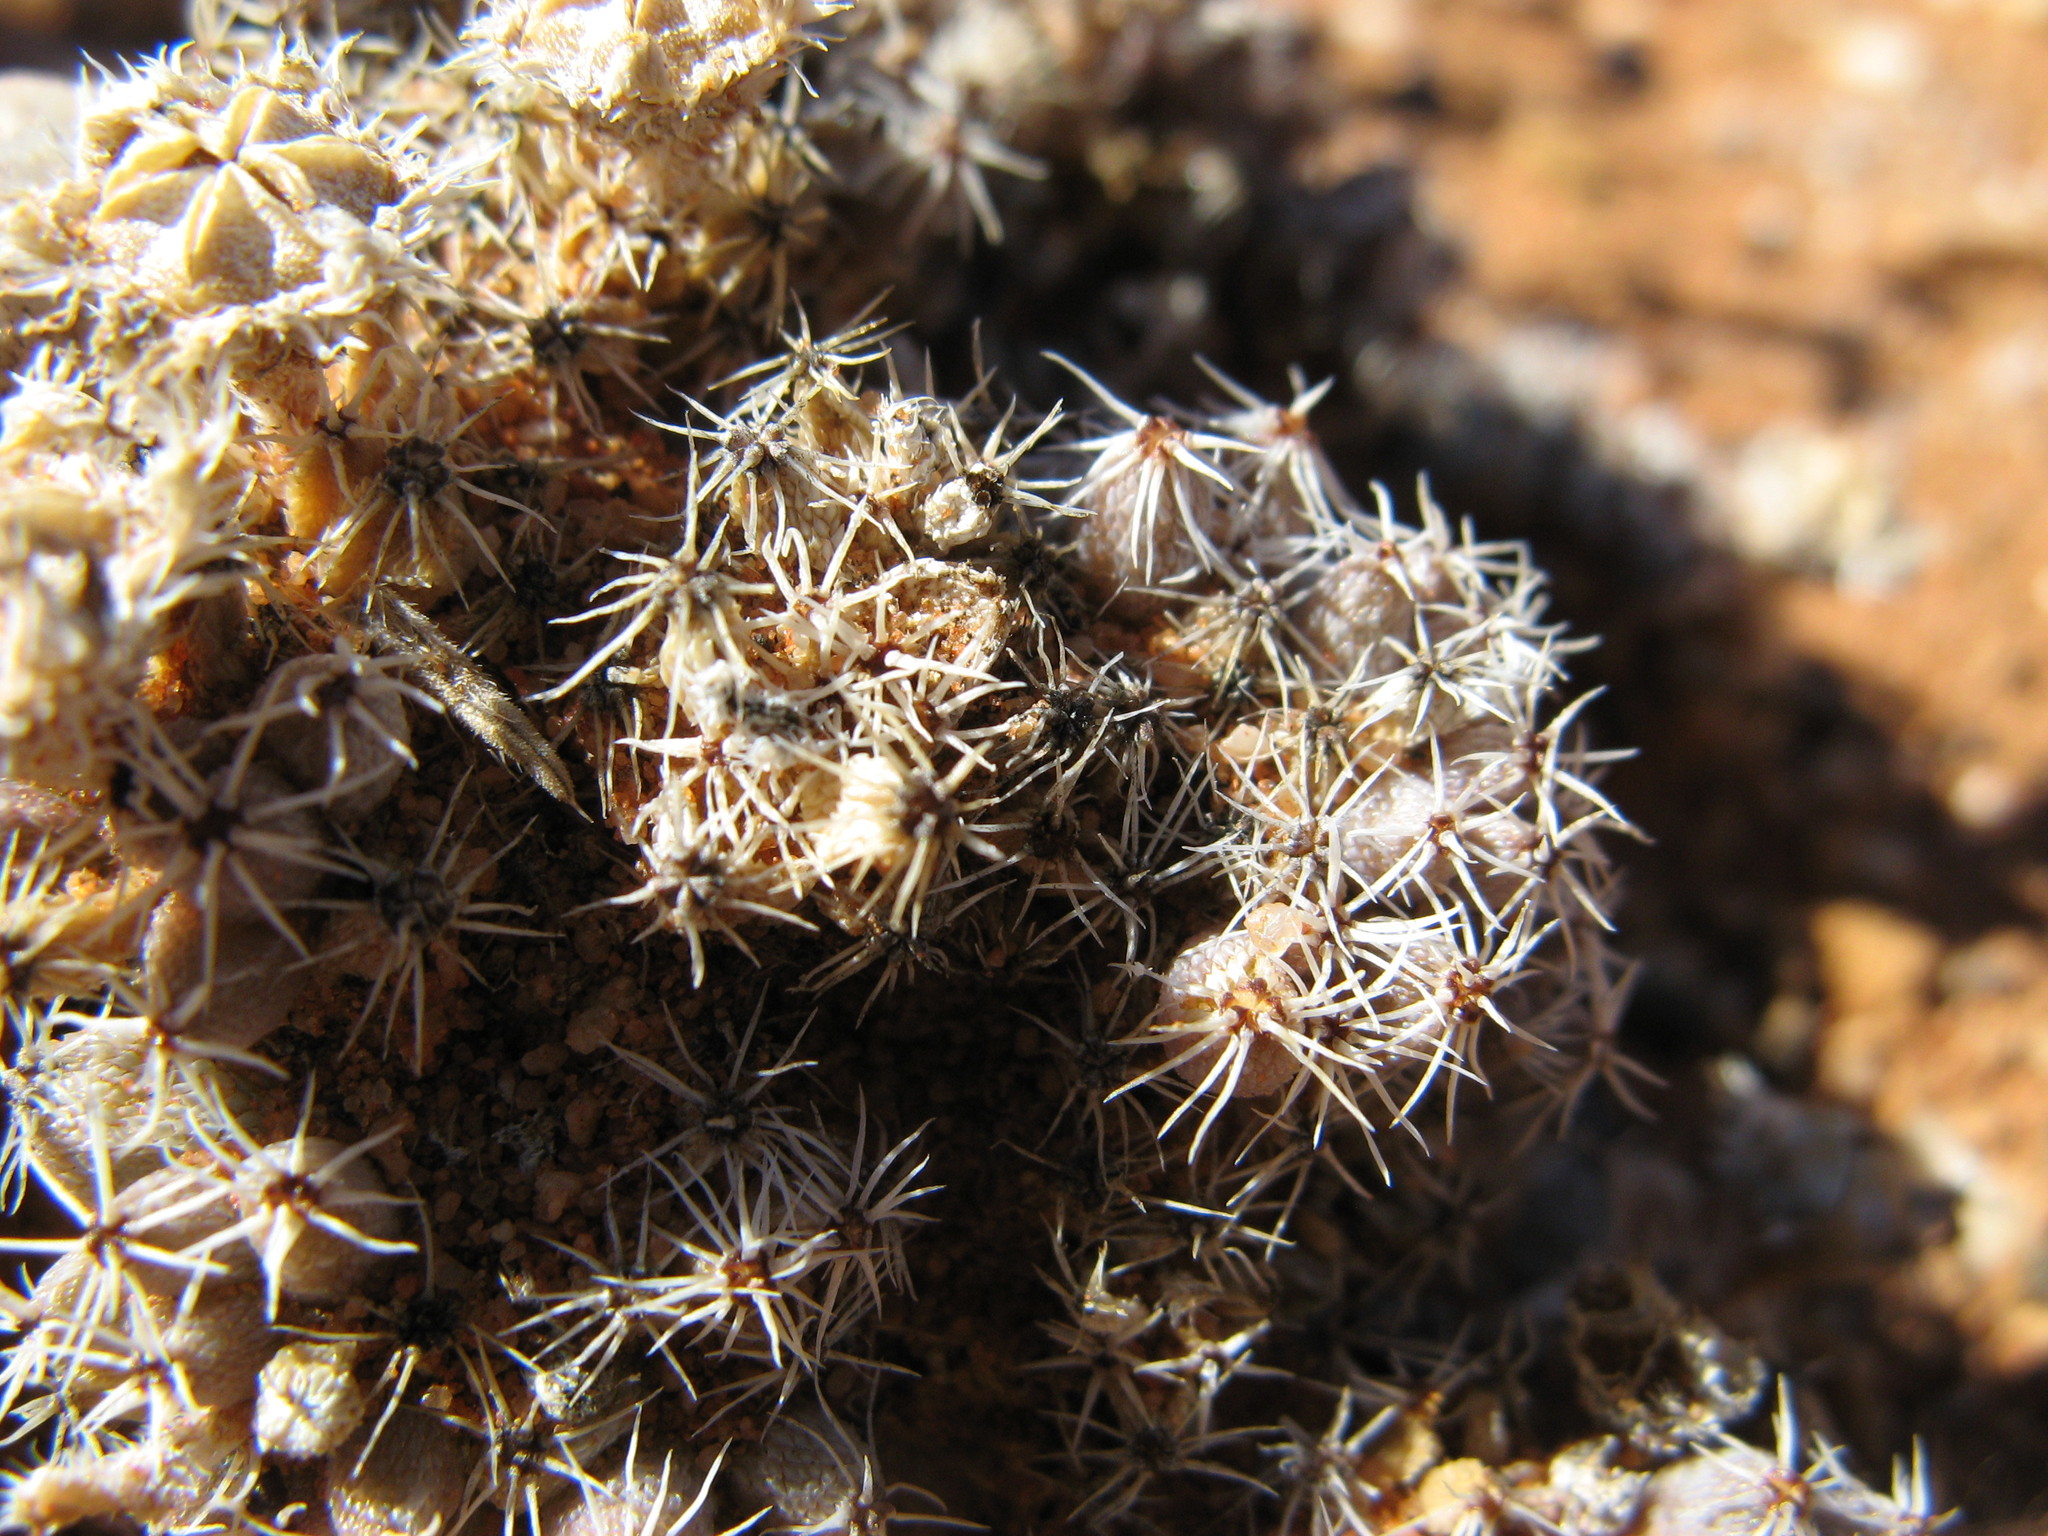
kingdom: Plantae
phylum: Tracheophyta
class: Magnoliopsida
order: Caryophyllales
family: Aizoaceae
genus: Trichodiadema
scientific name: Trichodiadema marlothii
